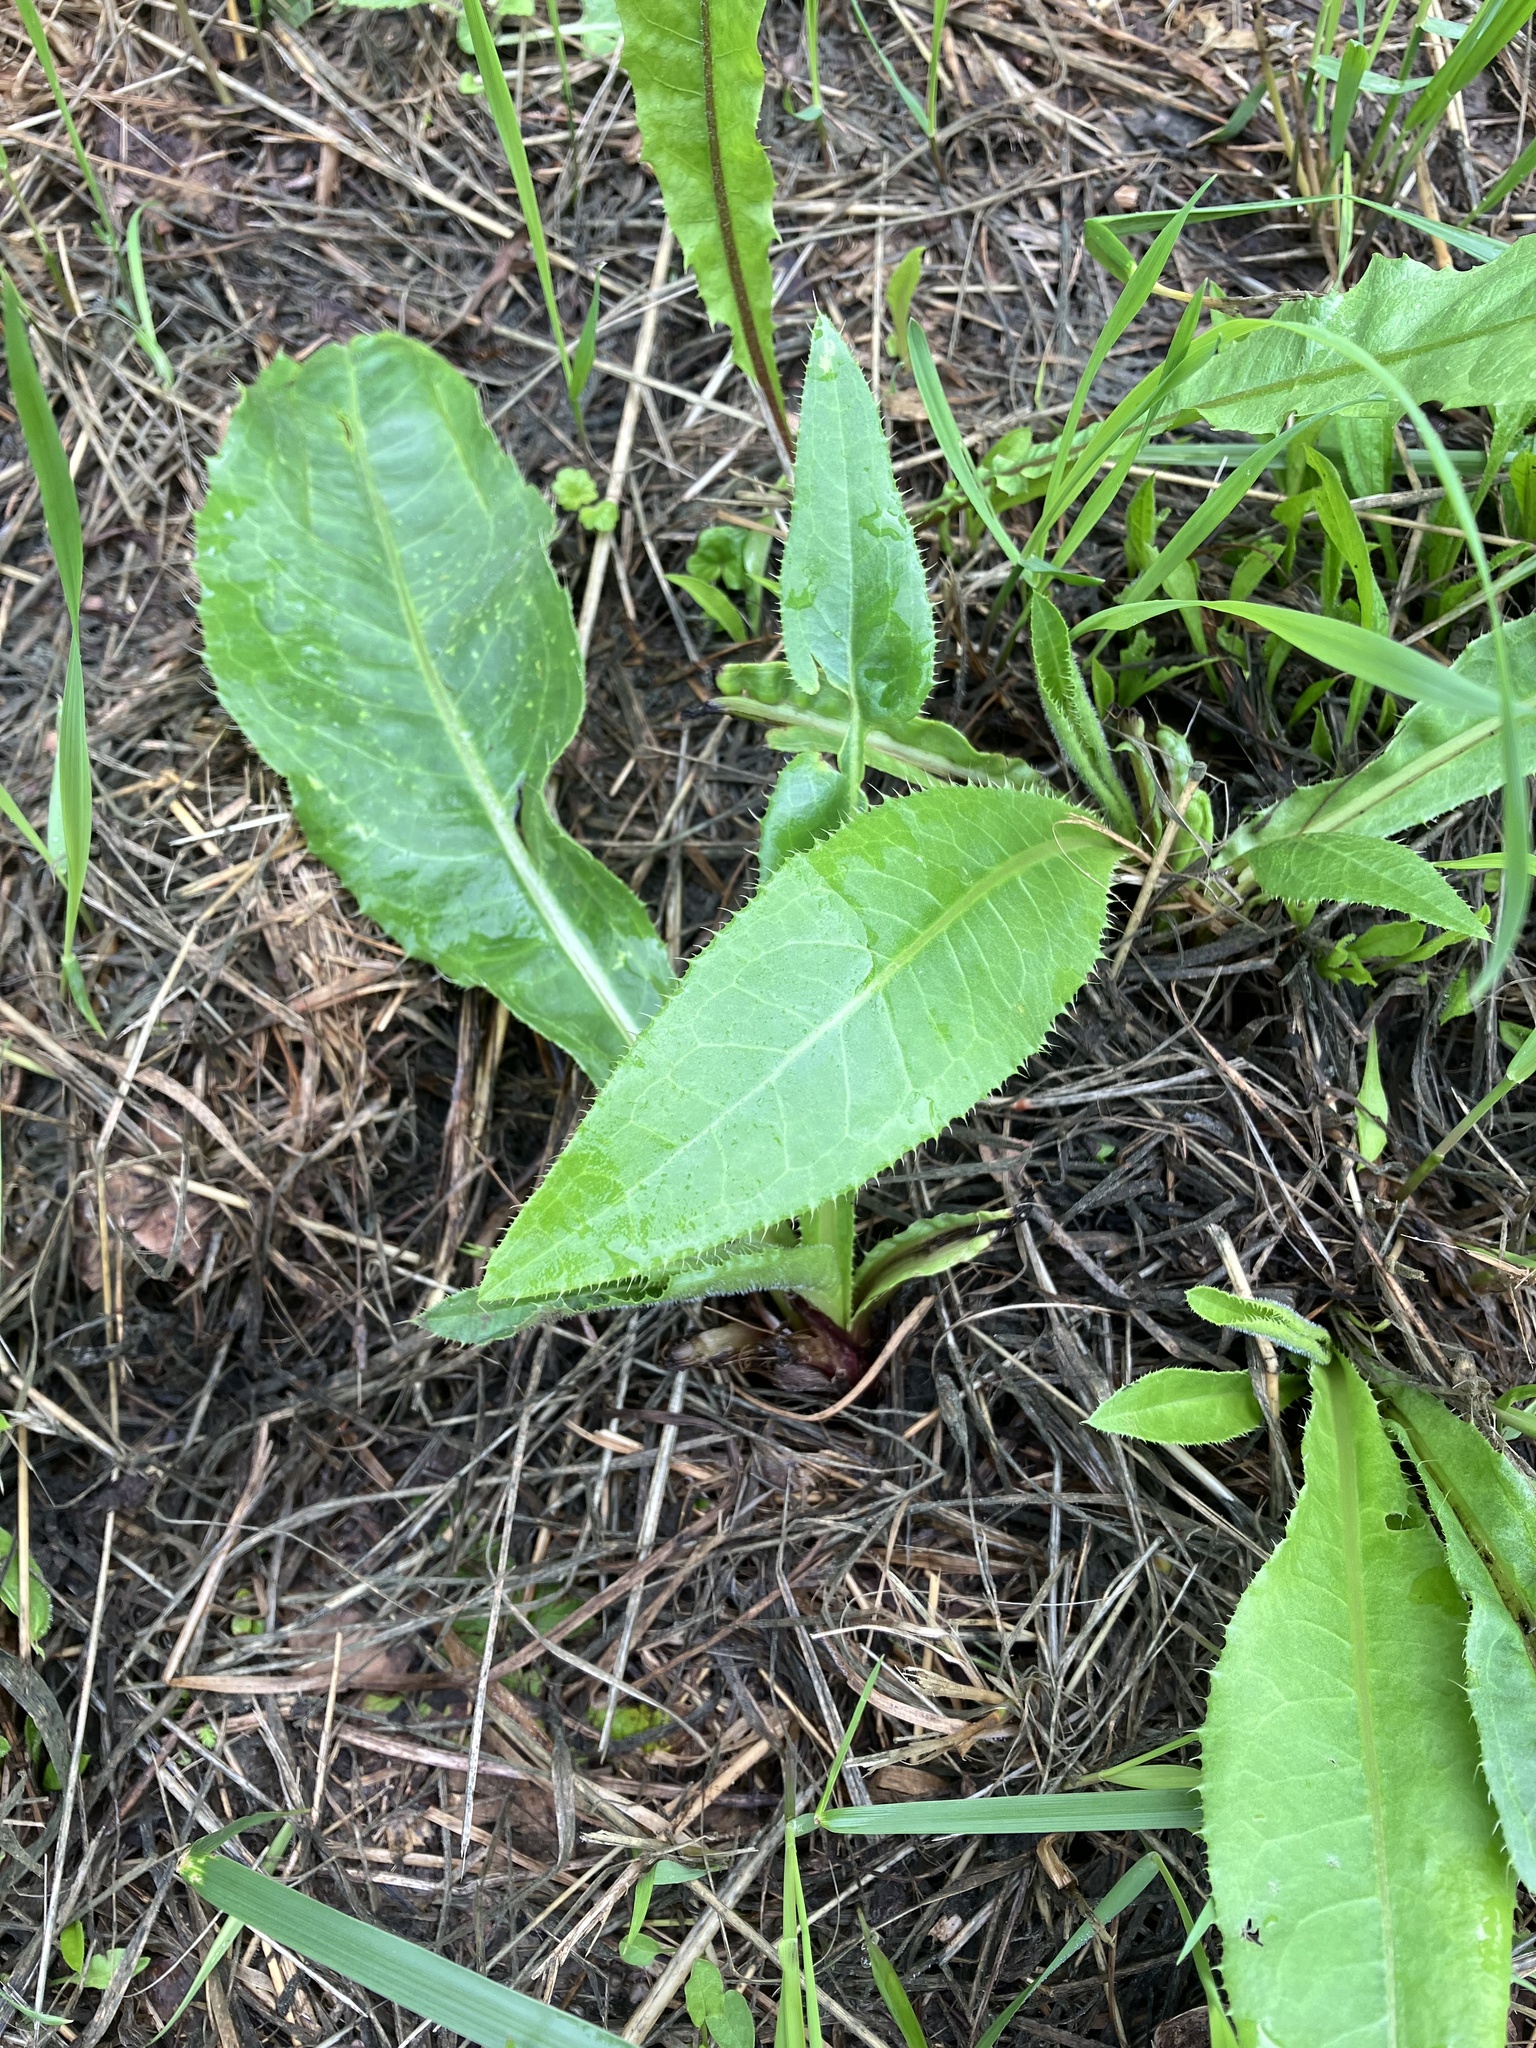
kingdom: Plantae
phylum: Tracheophyta
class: Magnoliopsida
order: Asterales
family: Asteraceae
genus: Cirsium
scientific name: Cirsium canum
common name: Queen anne's thistle
